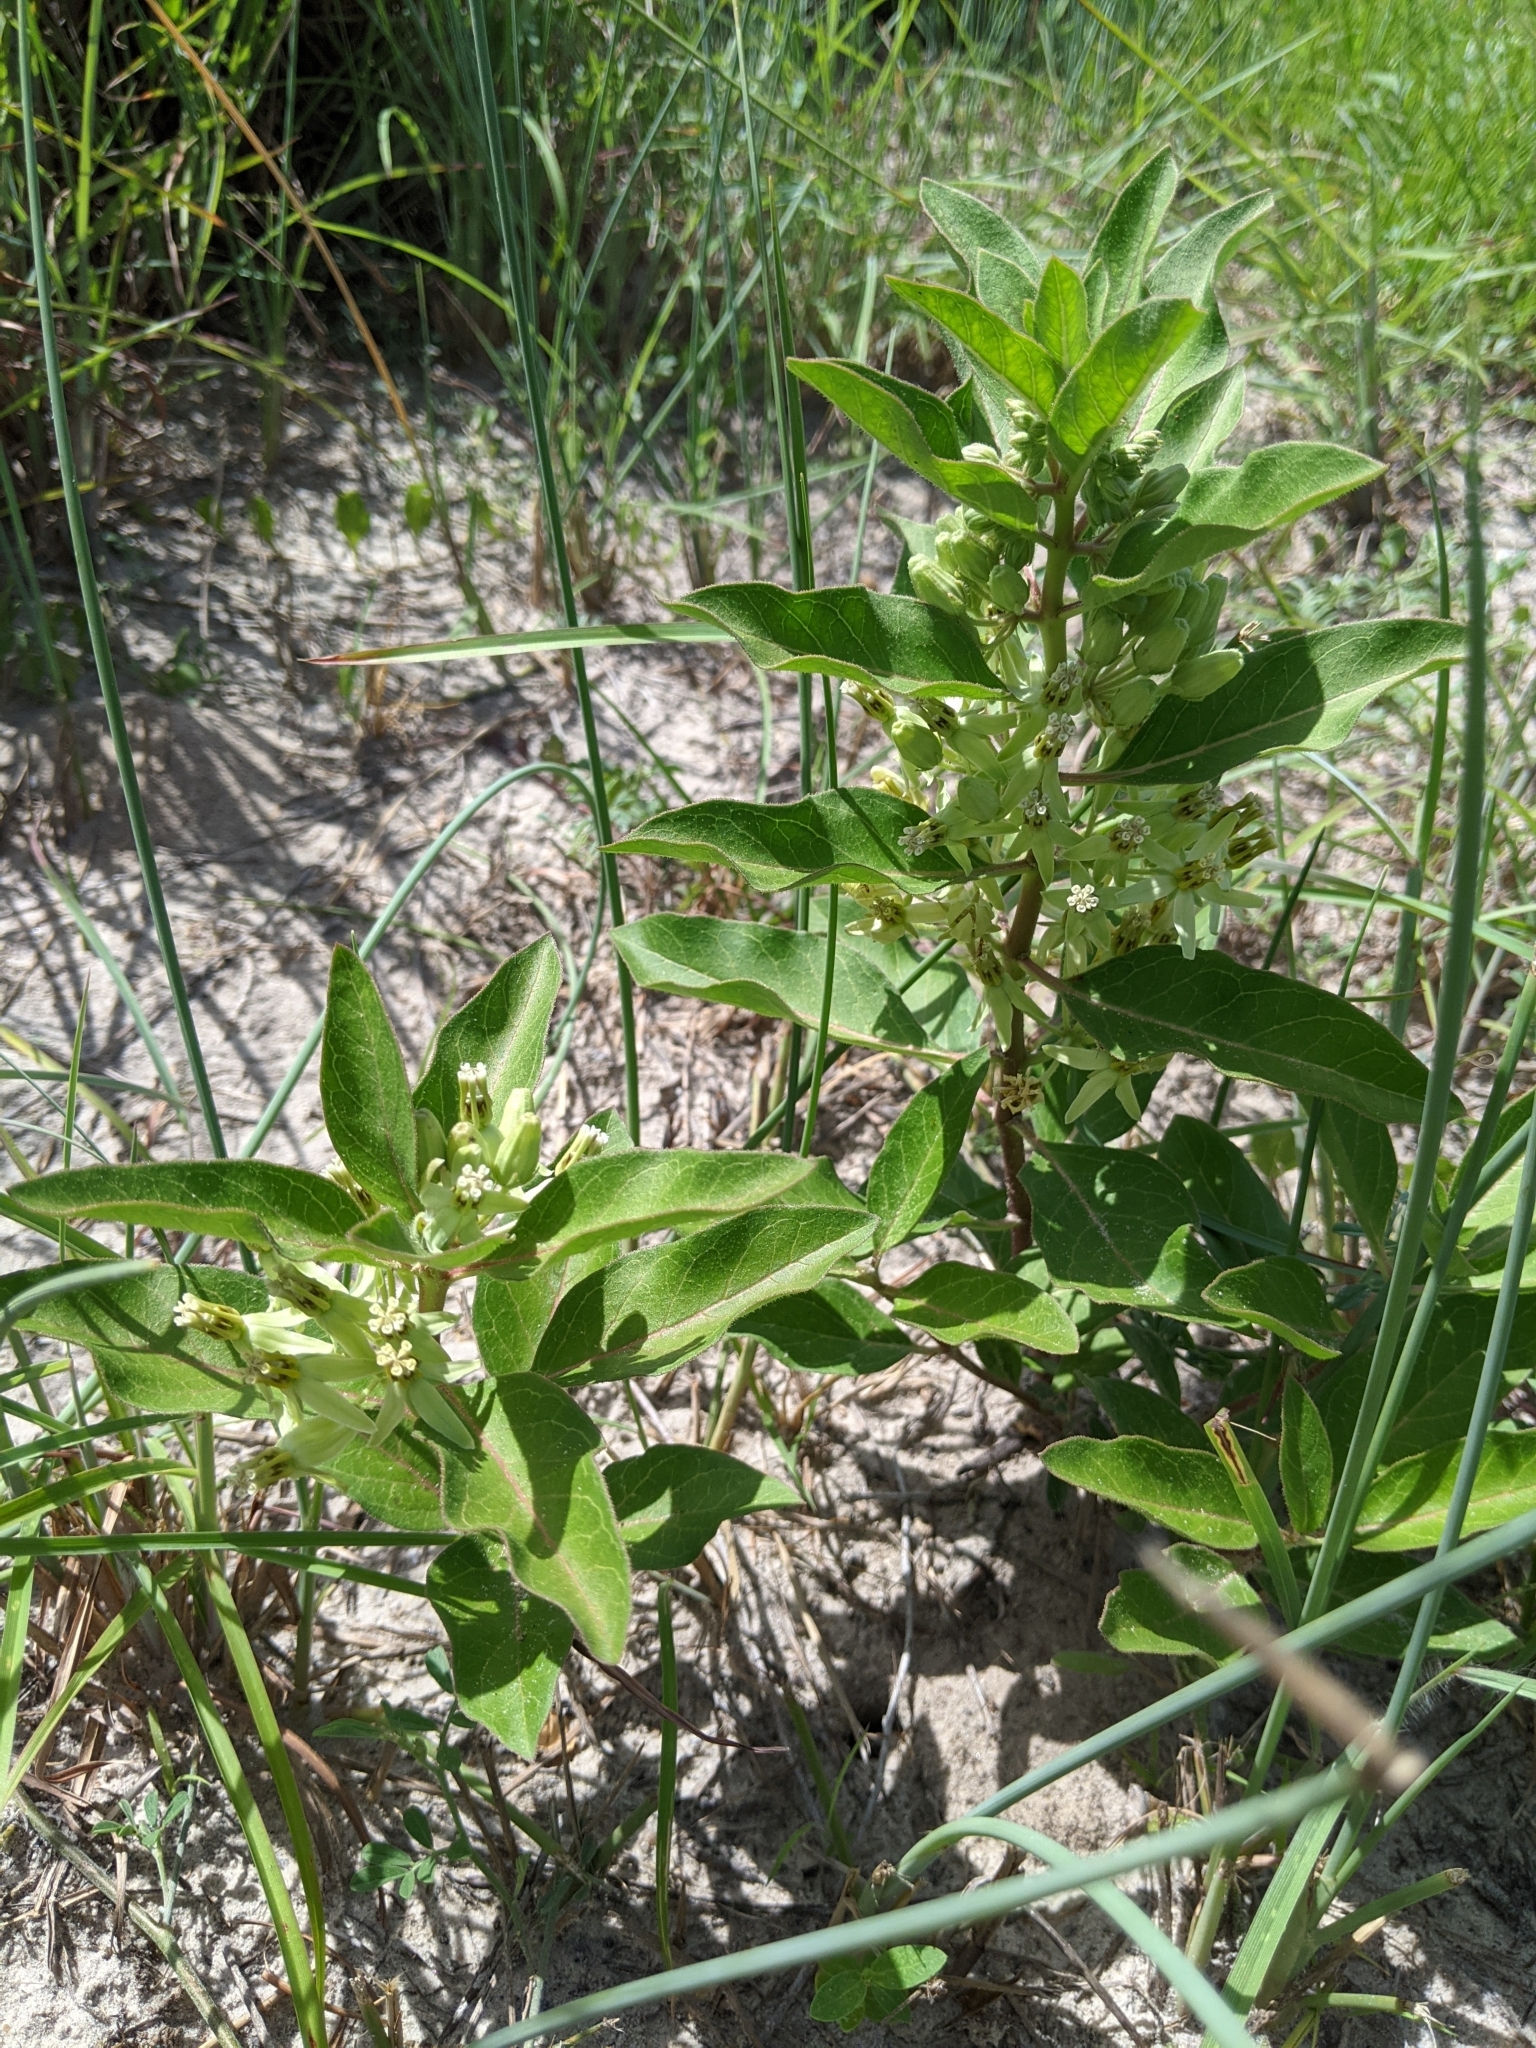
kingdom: Plantae
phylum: Tracheophyta
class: Magnoliopsida
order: Gentianales
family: Apocynaceae
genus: Asclepias
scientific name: Asclepias oenotheroides
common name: Zizotes milkweed
